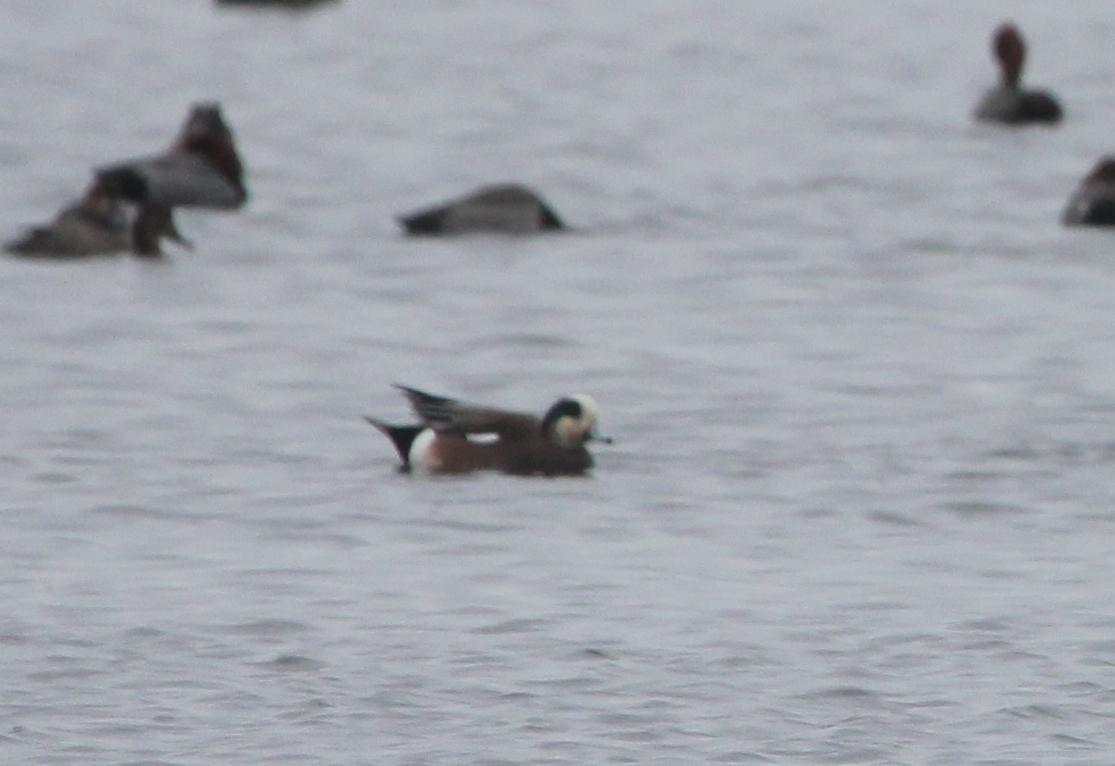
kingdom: Animalia
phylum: Chordata
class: Aves
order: Anseriformes
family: Anatidae
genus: Mareca
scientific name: Mareca americana
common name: American wigeon
